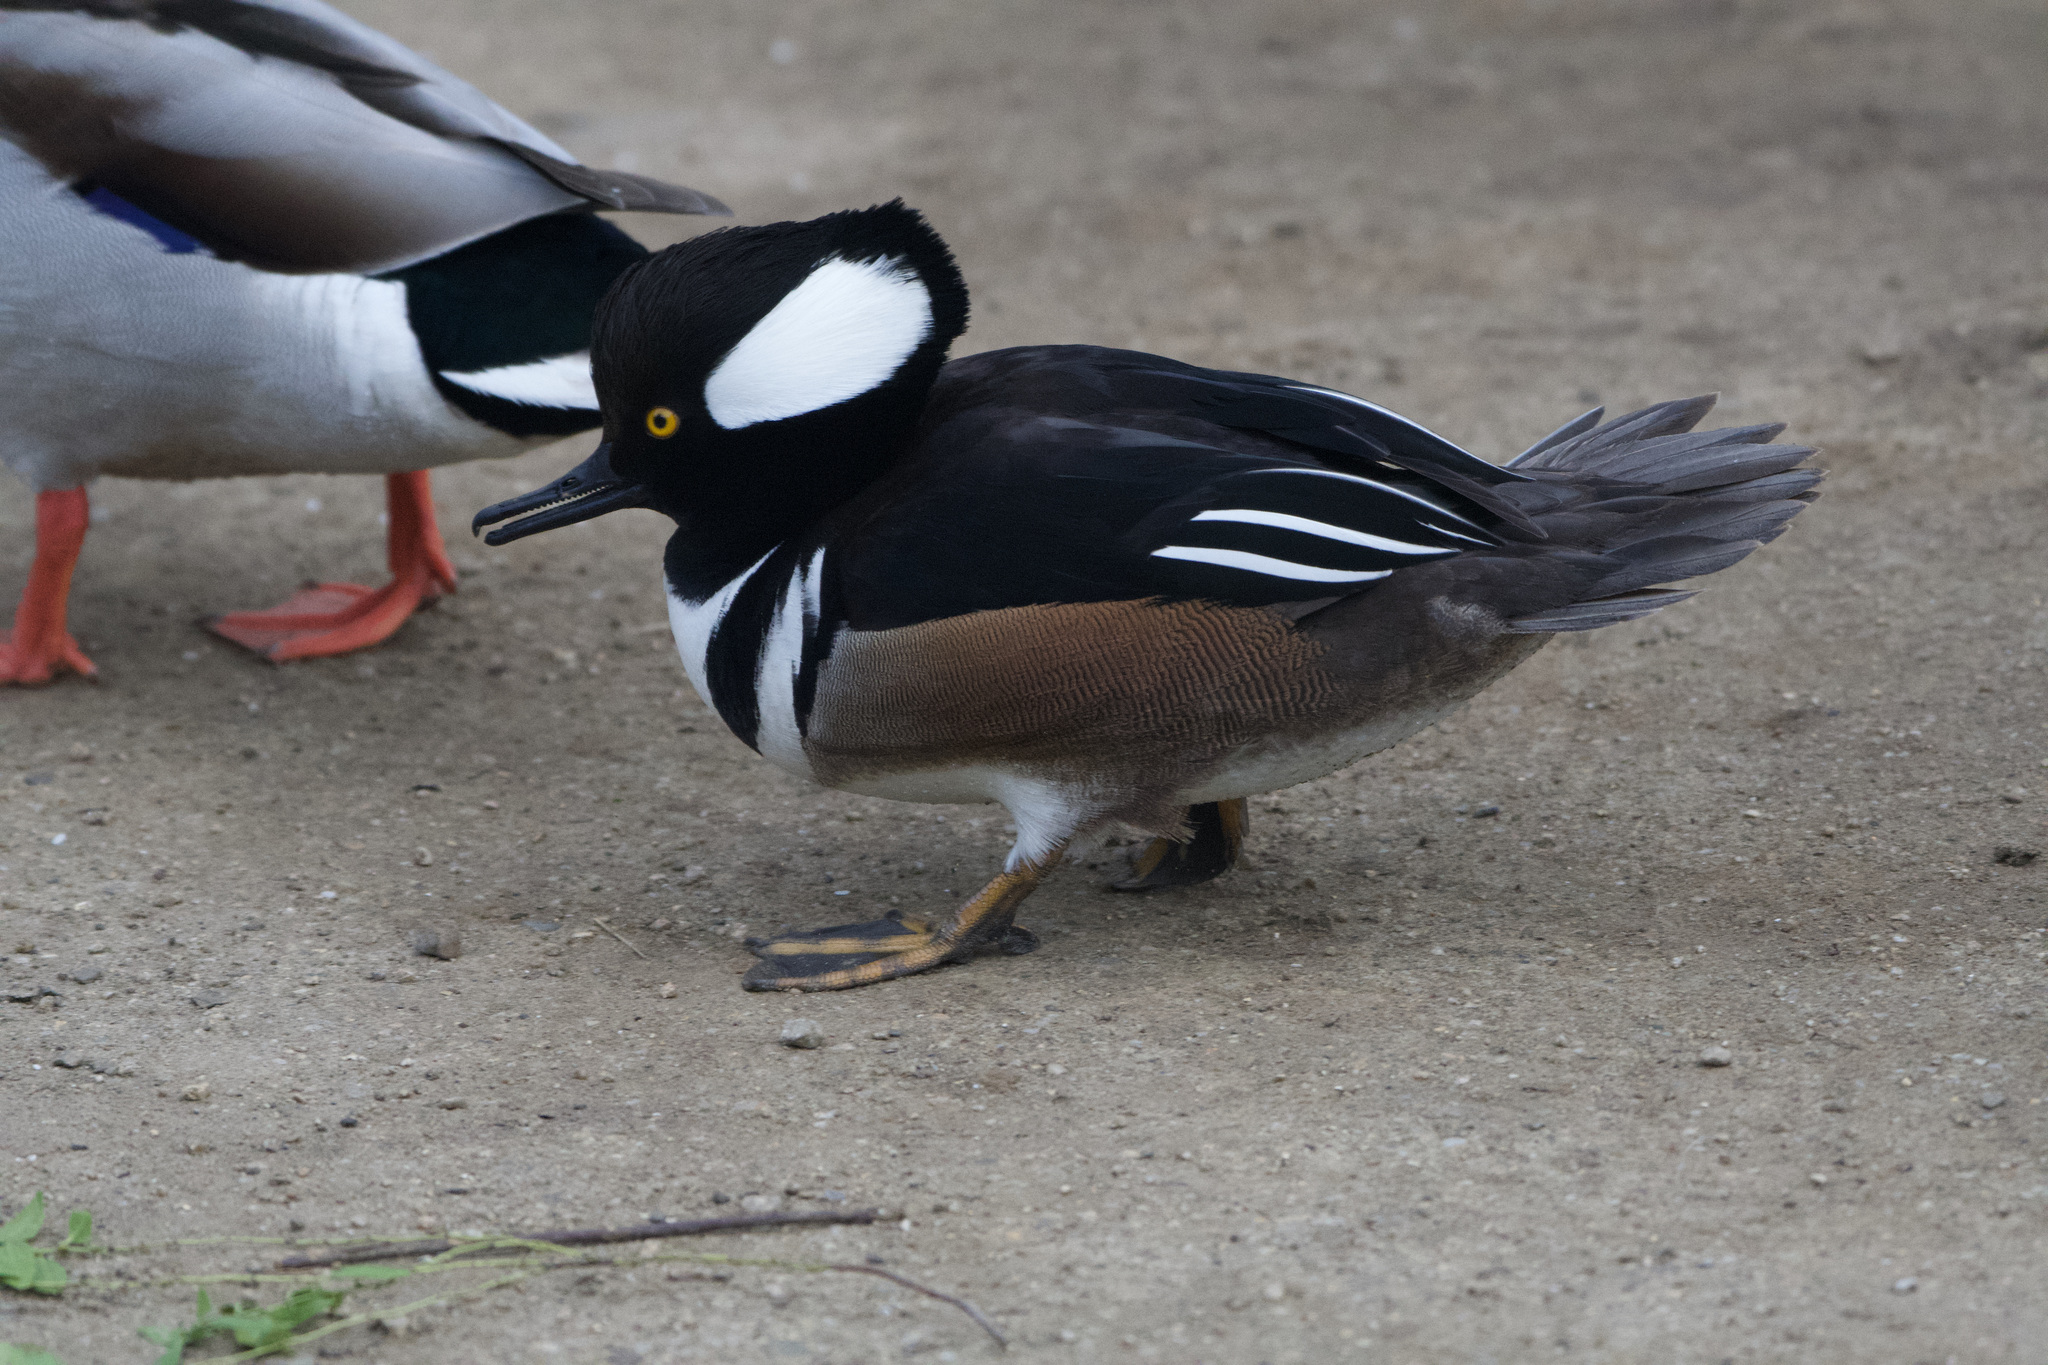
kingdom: Animalia
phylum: Chordata
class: Aves
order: Anseriformes
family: Anatidae
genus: Lophodytes
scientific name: Lophodytes cucullatus
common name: Hooded merganser
